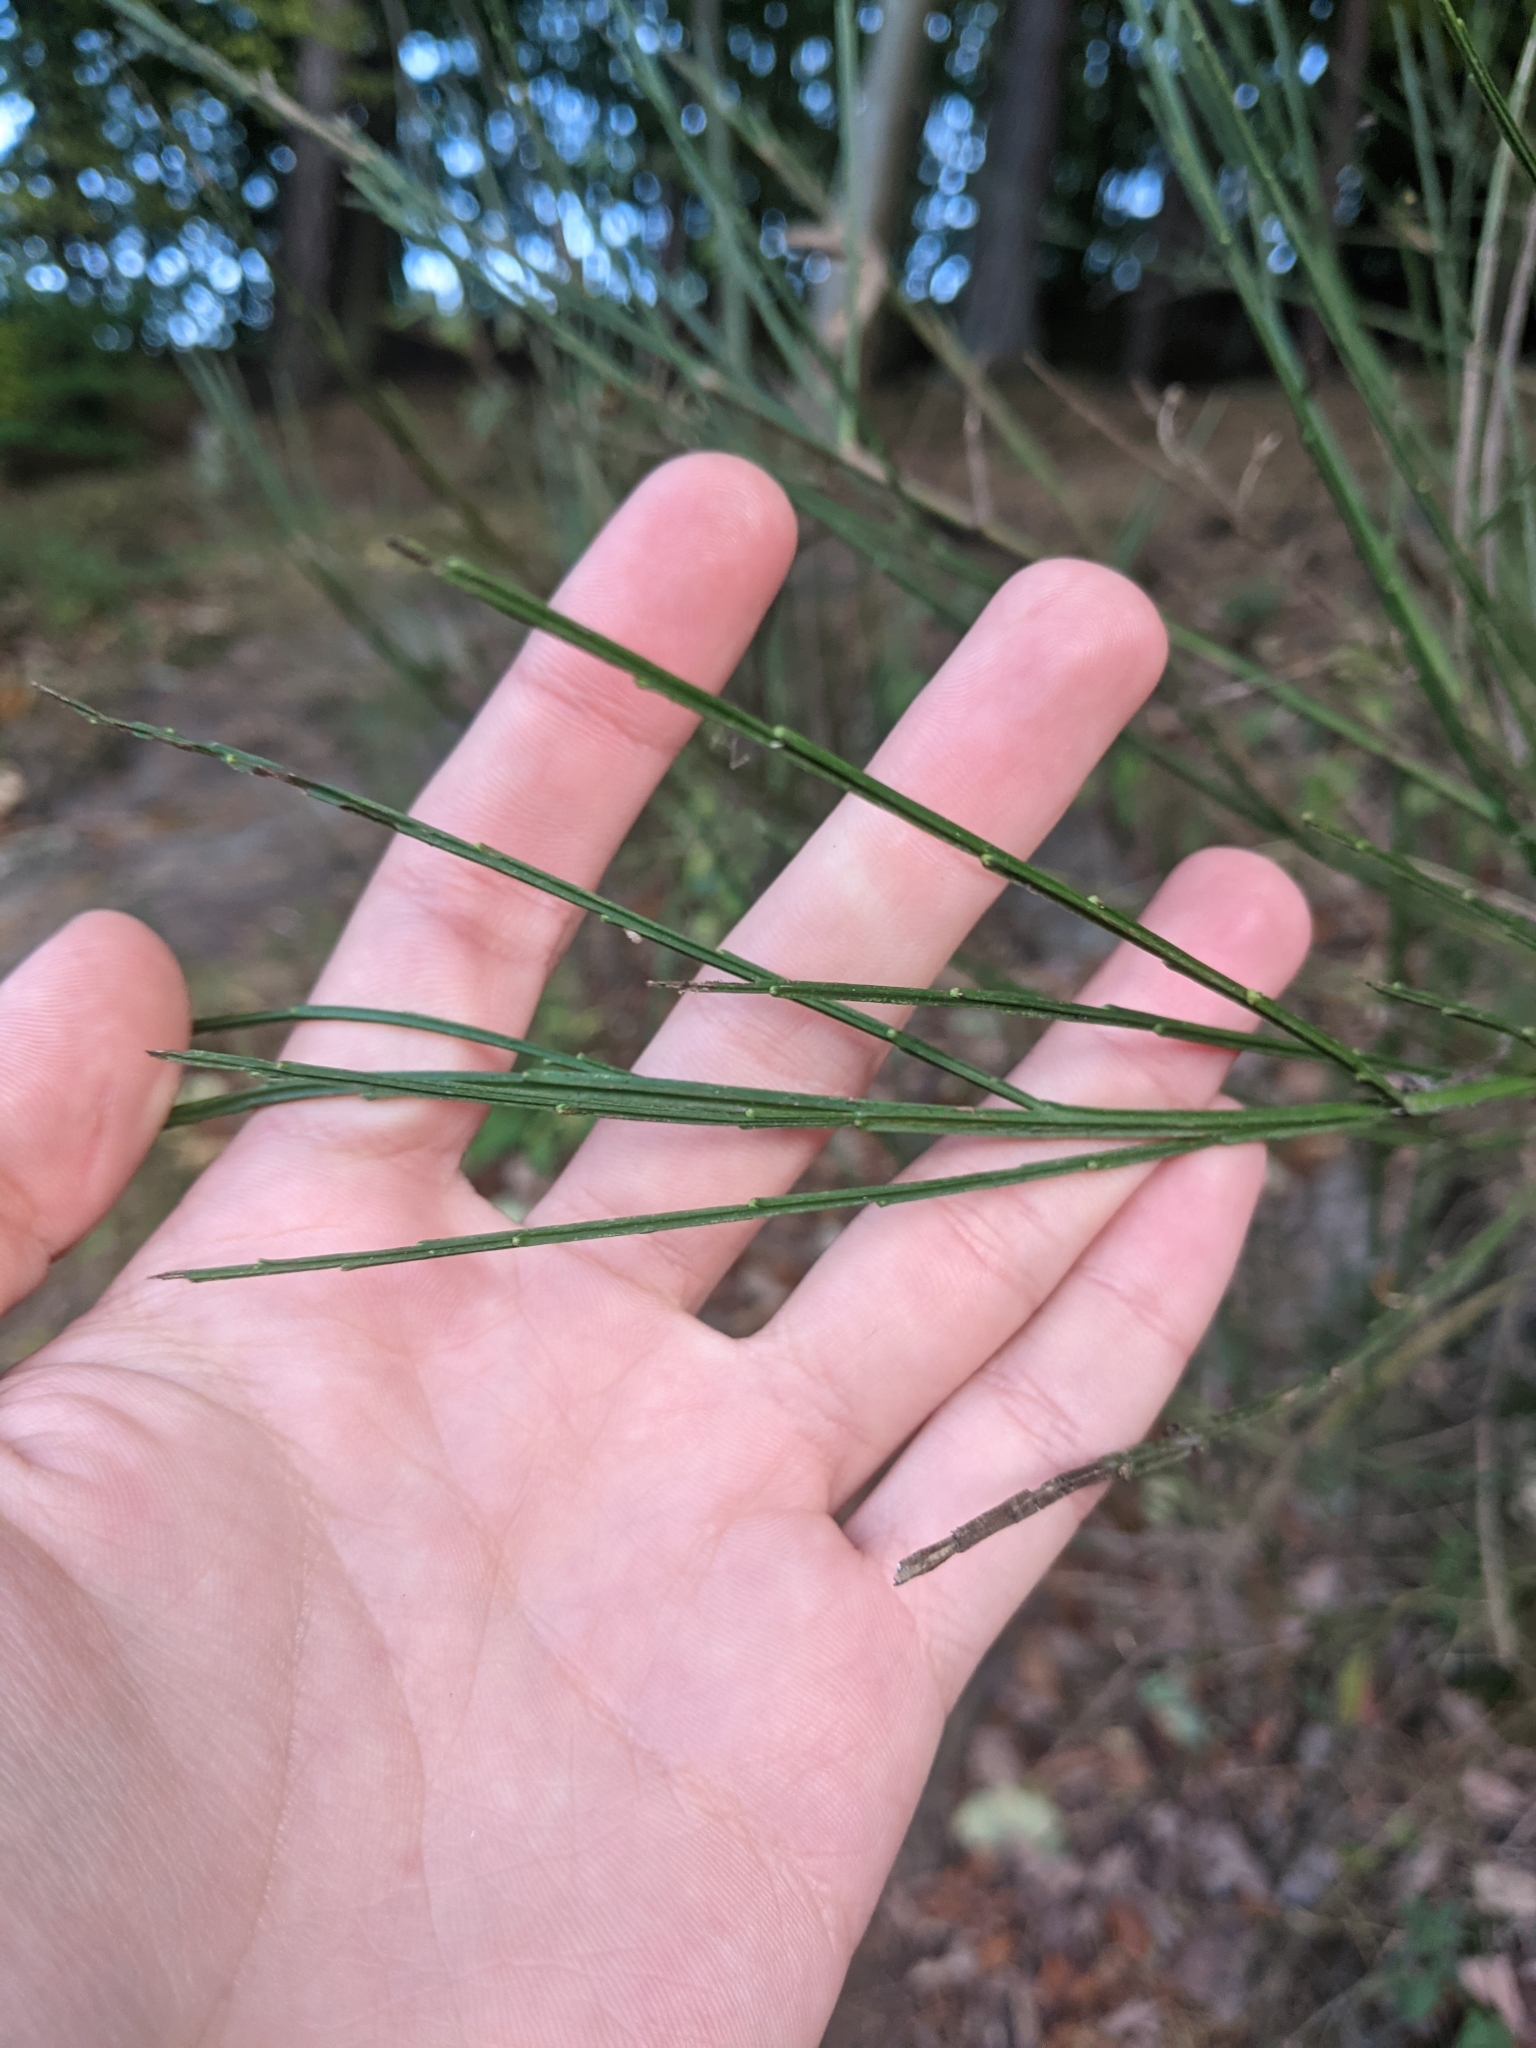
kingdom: Plantae
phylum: Tracheophyta
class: Magnoliopsida
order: Fabales
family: Fabaceae
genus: Cytisus
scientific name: Cytisus scoparius
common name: Scotch broom
